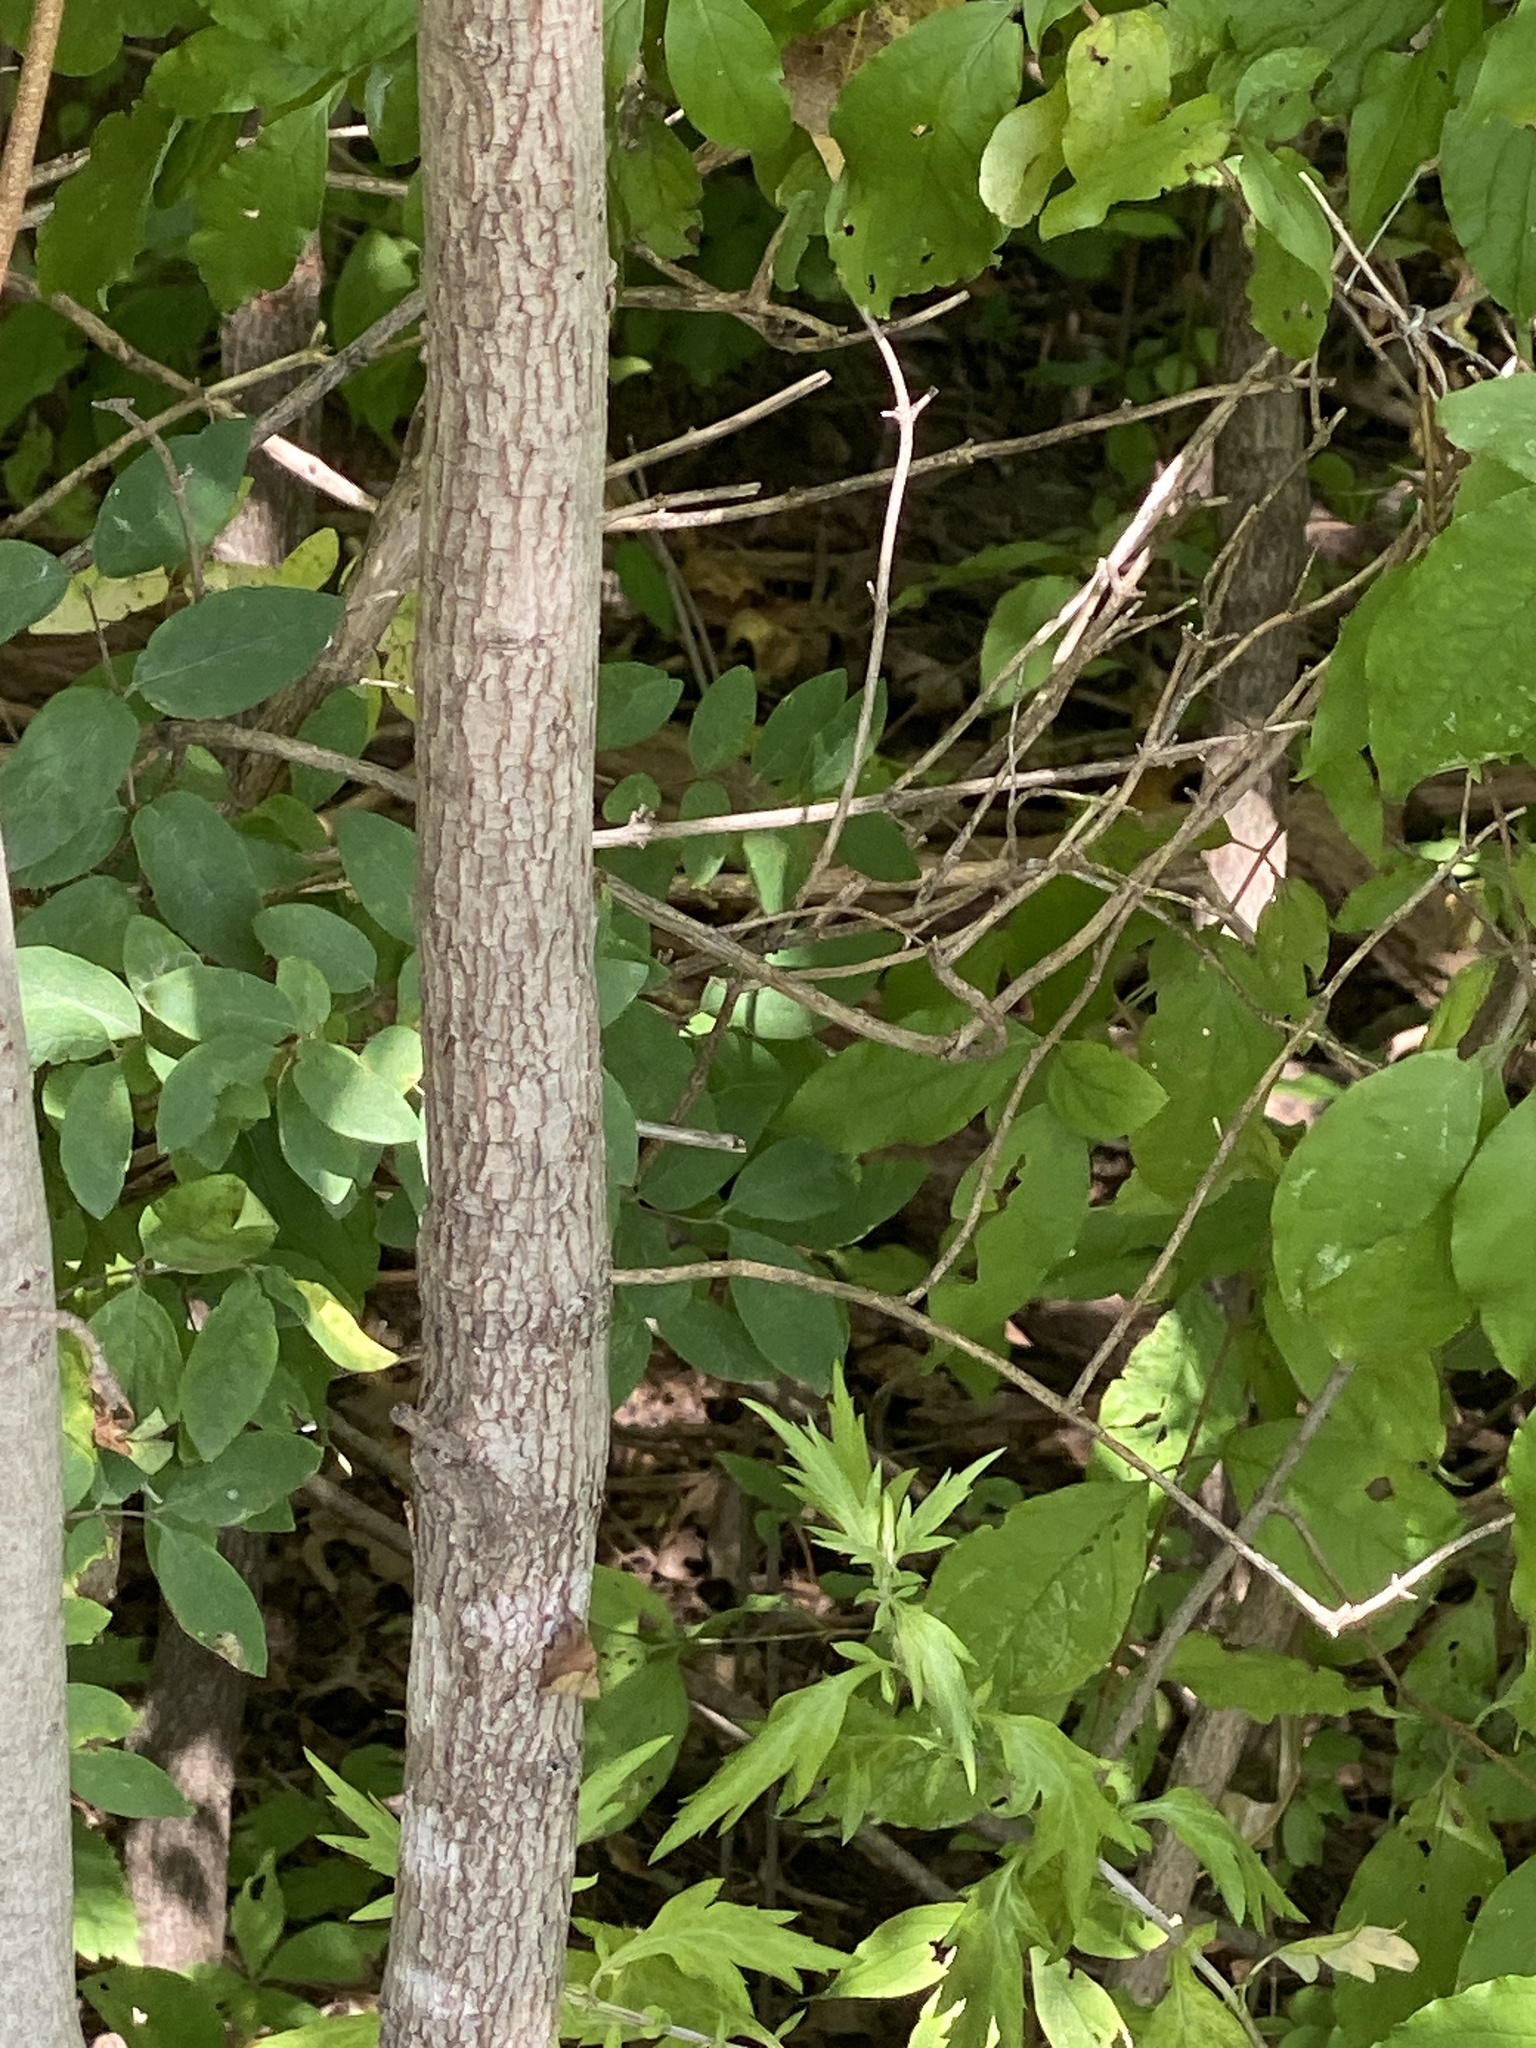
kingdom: Plantae
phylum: Tracheophyta
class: Magnoliopsida
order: Cornales
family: Cornaceae
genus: Cornus
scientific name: Cornus racemosa
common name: Panicled dogwood
